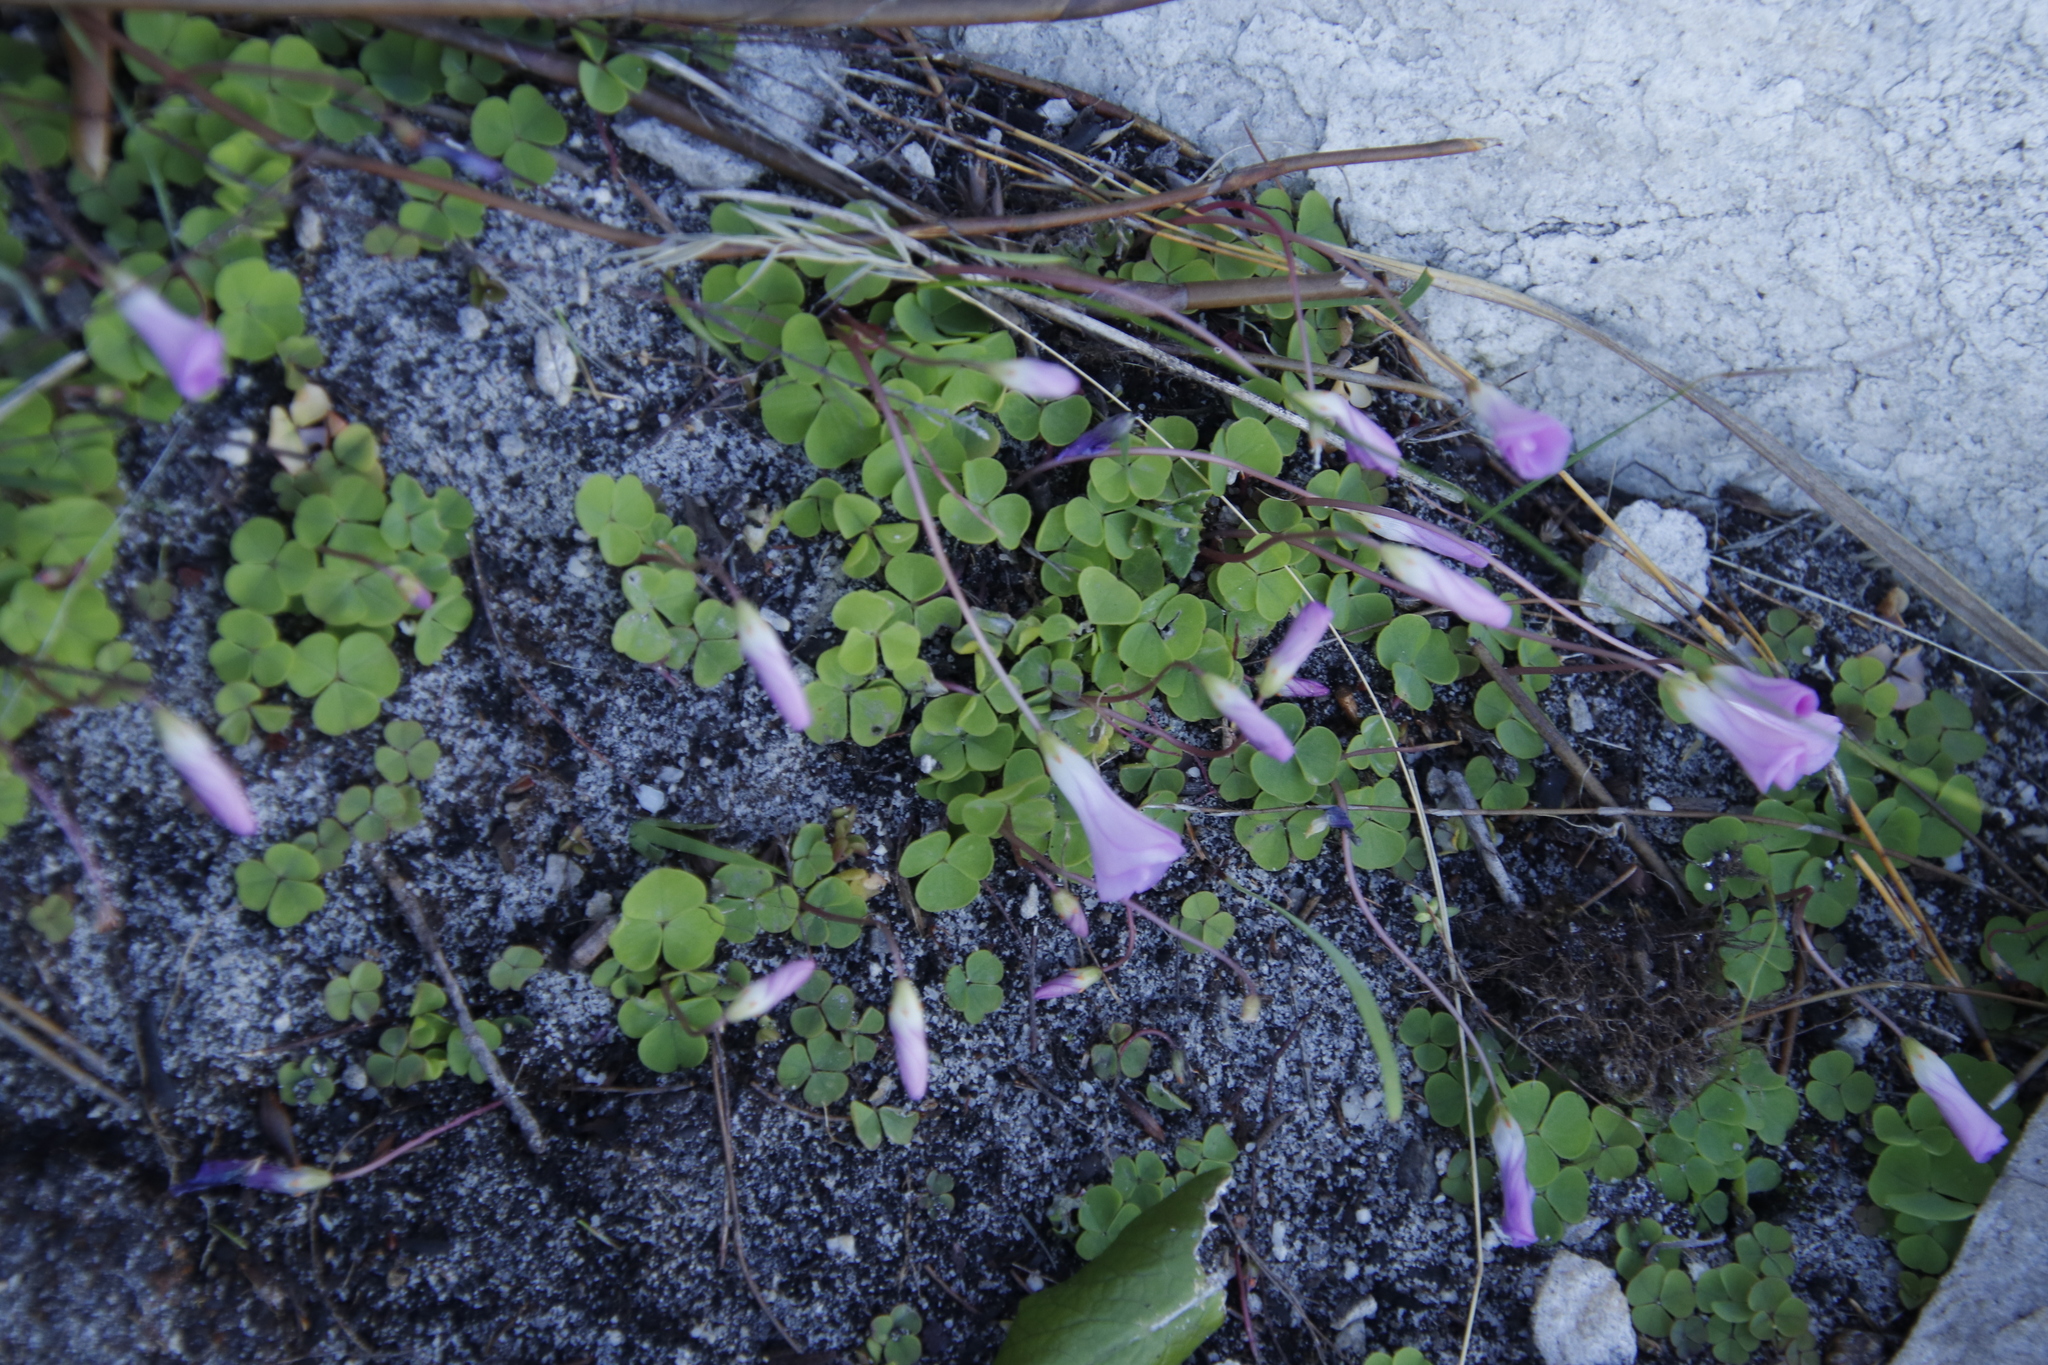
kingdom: Plantae
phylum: Tracheophyta
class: Magnoliopsida
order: Oxalidales
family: Oxalidaceae
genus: Oxalis
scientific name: Oxalis commutata
